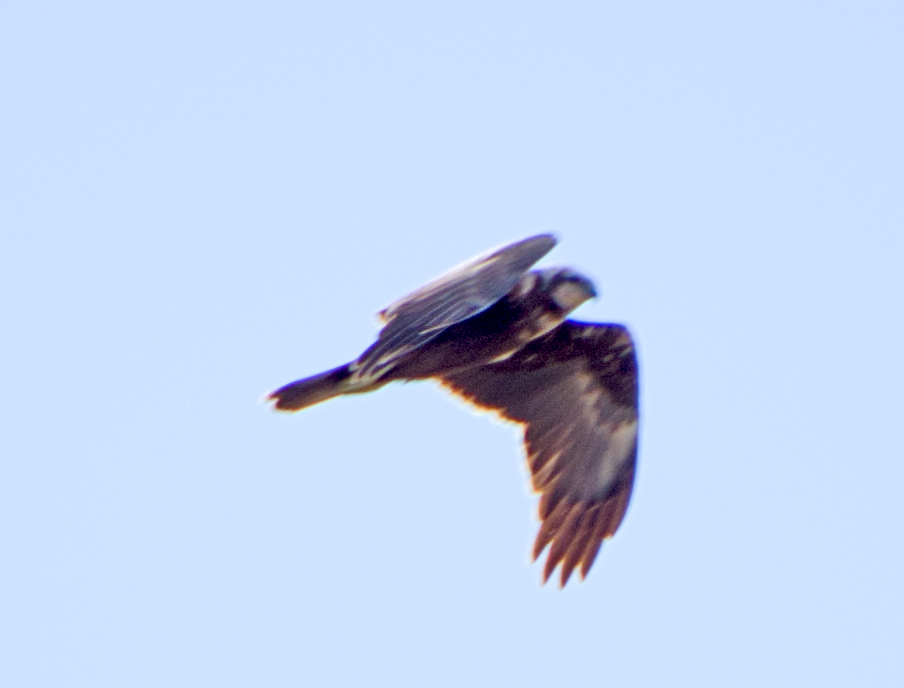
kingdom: Animalia
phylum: Chordata
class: Aves
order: Accipitriformes
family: Accipitridae
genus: Circus
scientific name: Circus aeruginosus
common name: Western marsh harrier
